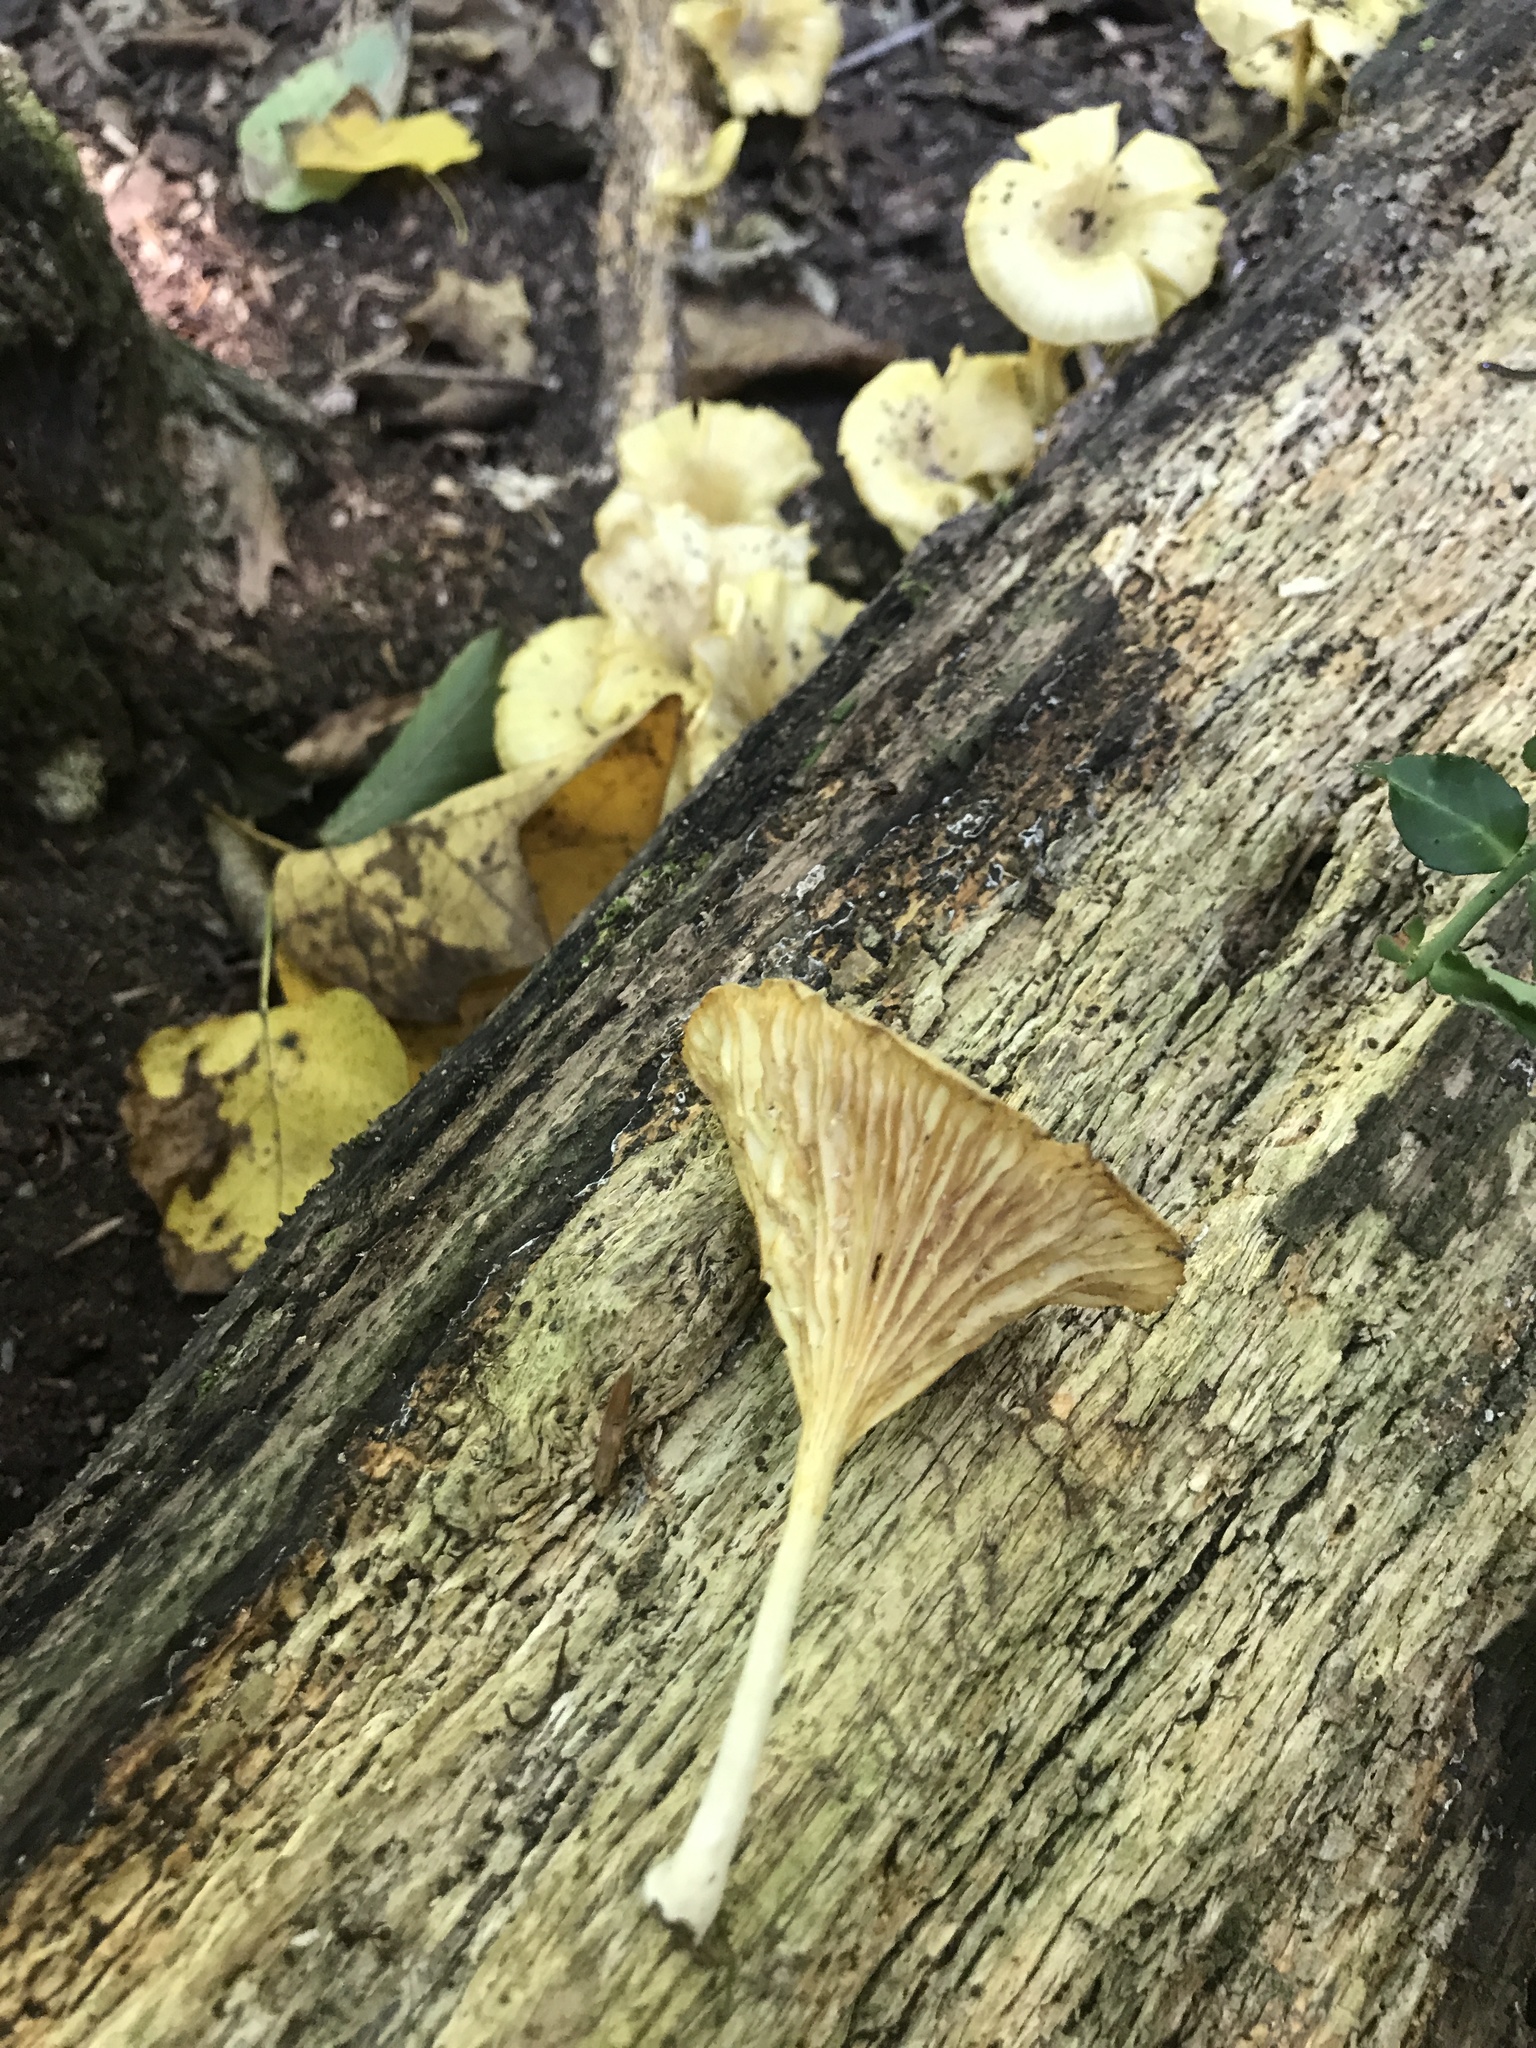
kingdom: Fungi
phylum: Basidiomycota
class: Agaricomycetes
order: Agaricales
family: Marasmiaceae
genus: Gerronema
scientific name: Gerronema strombodes
